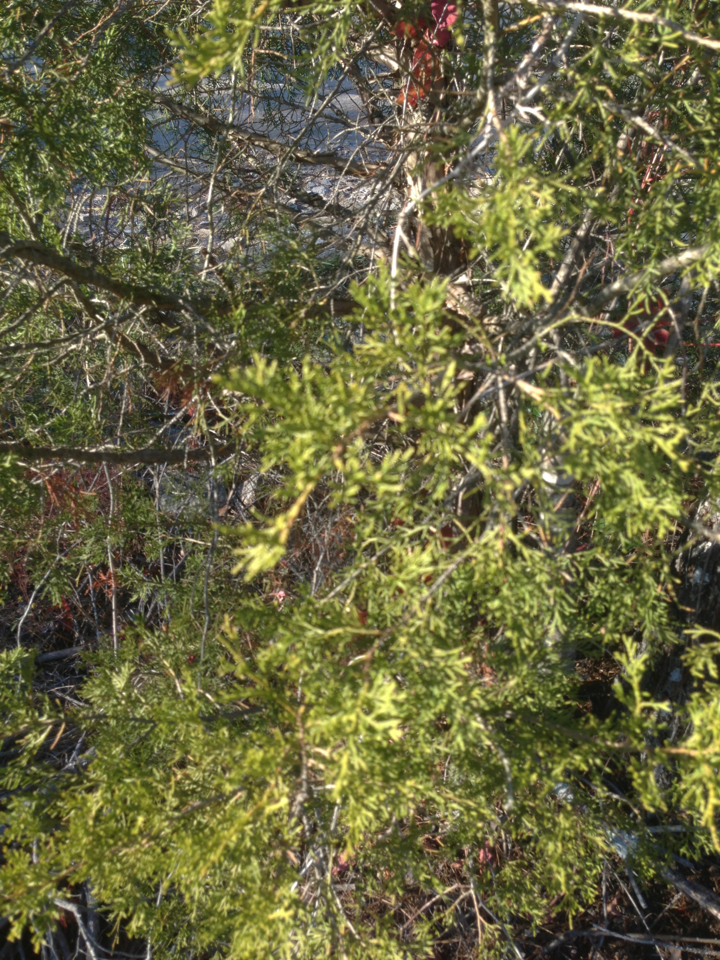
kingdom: Plantae
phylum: Tracheophyta
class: Pinopsida
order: Pinales
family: Cupressaceae
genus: Juniperus
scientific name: Juniperus virginiana
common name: Red juniper
